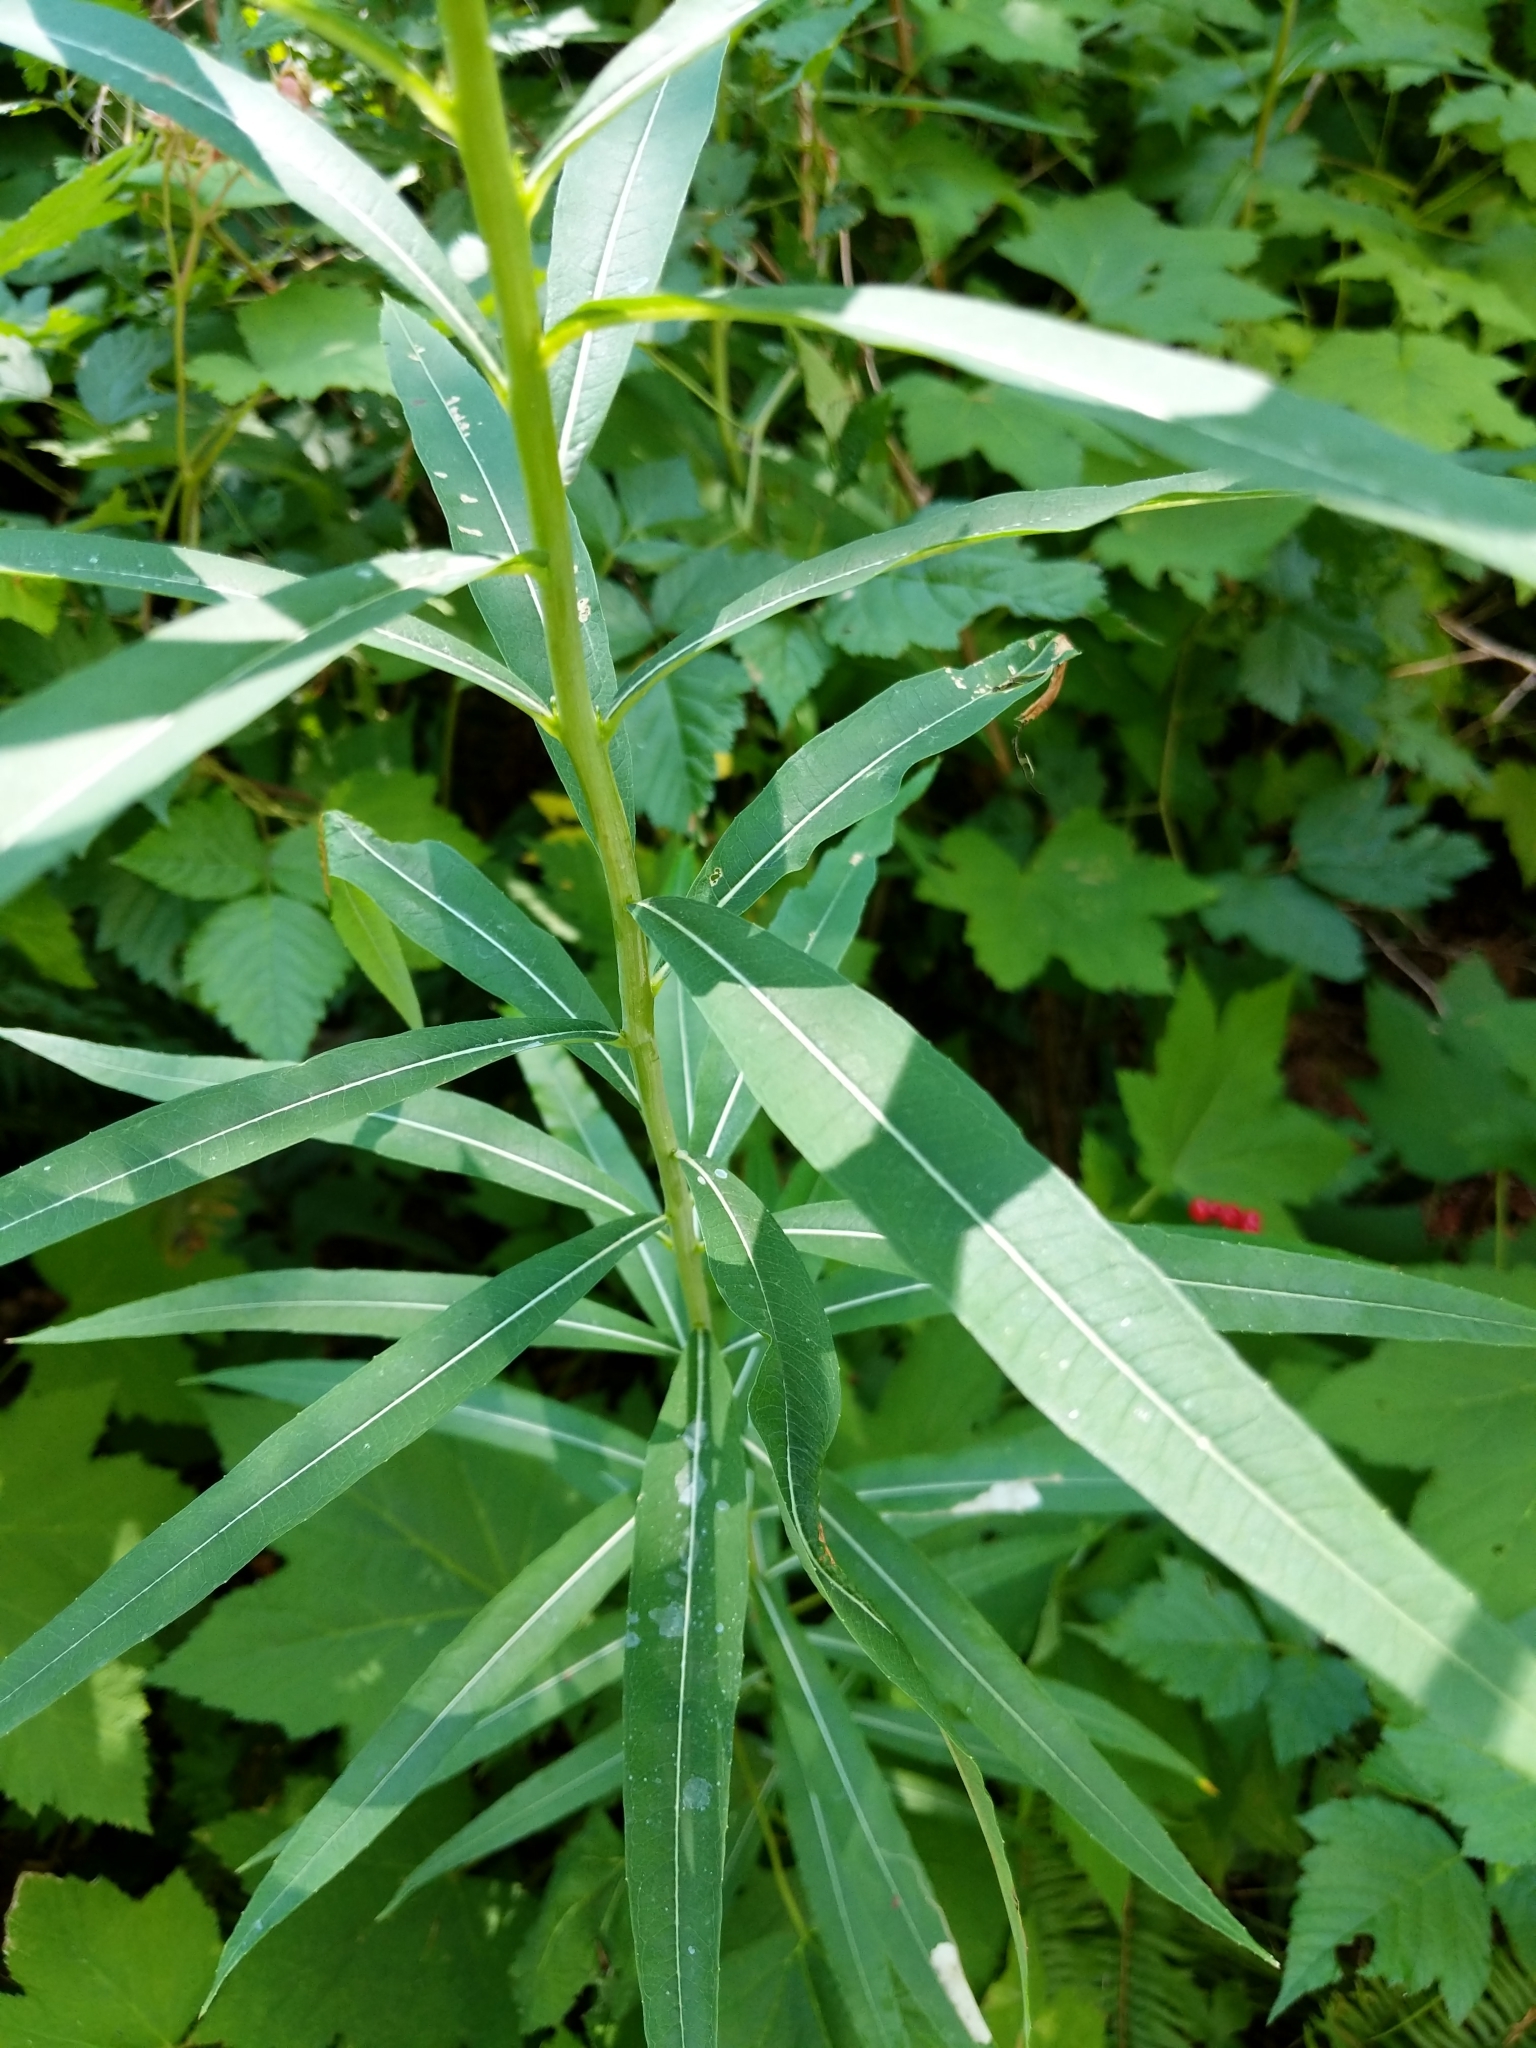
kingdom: Plantae
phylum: Tracheophyta
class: Magnoliopsida
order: Myrtales
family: Onagraceae
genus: Chamaenerion
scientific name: Chamaenerion angustifolium
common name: Fireweed
